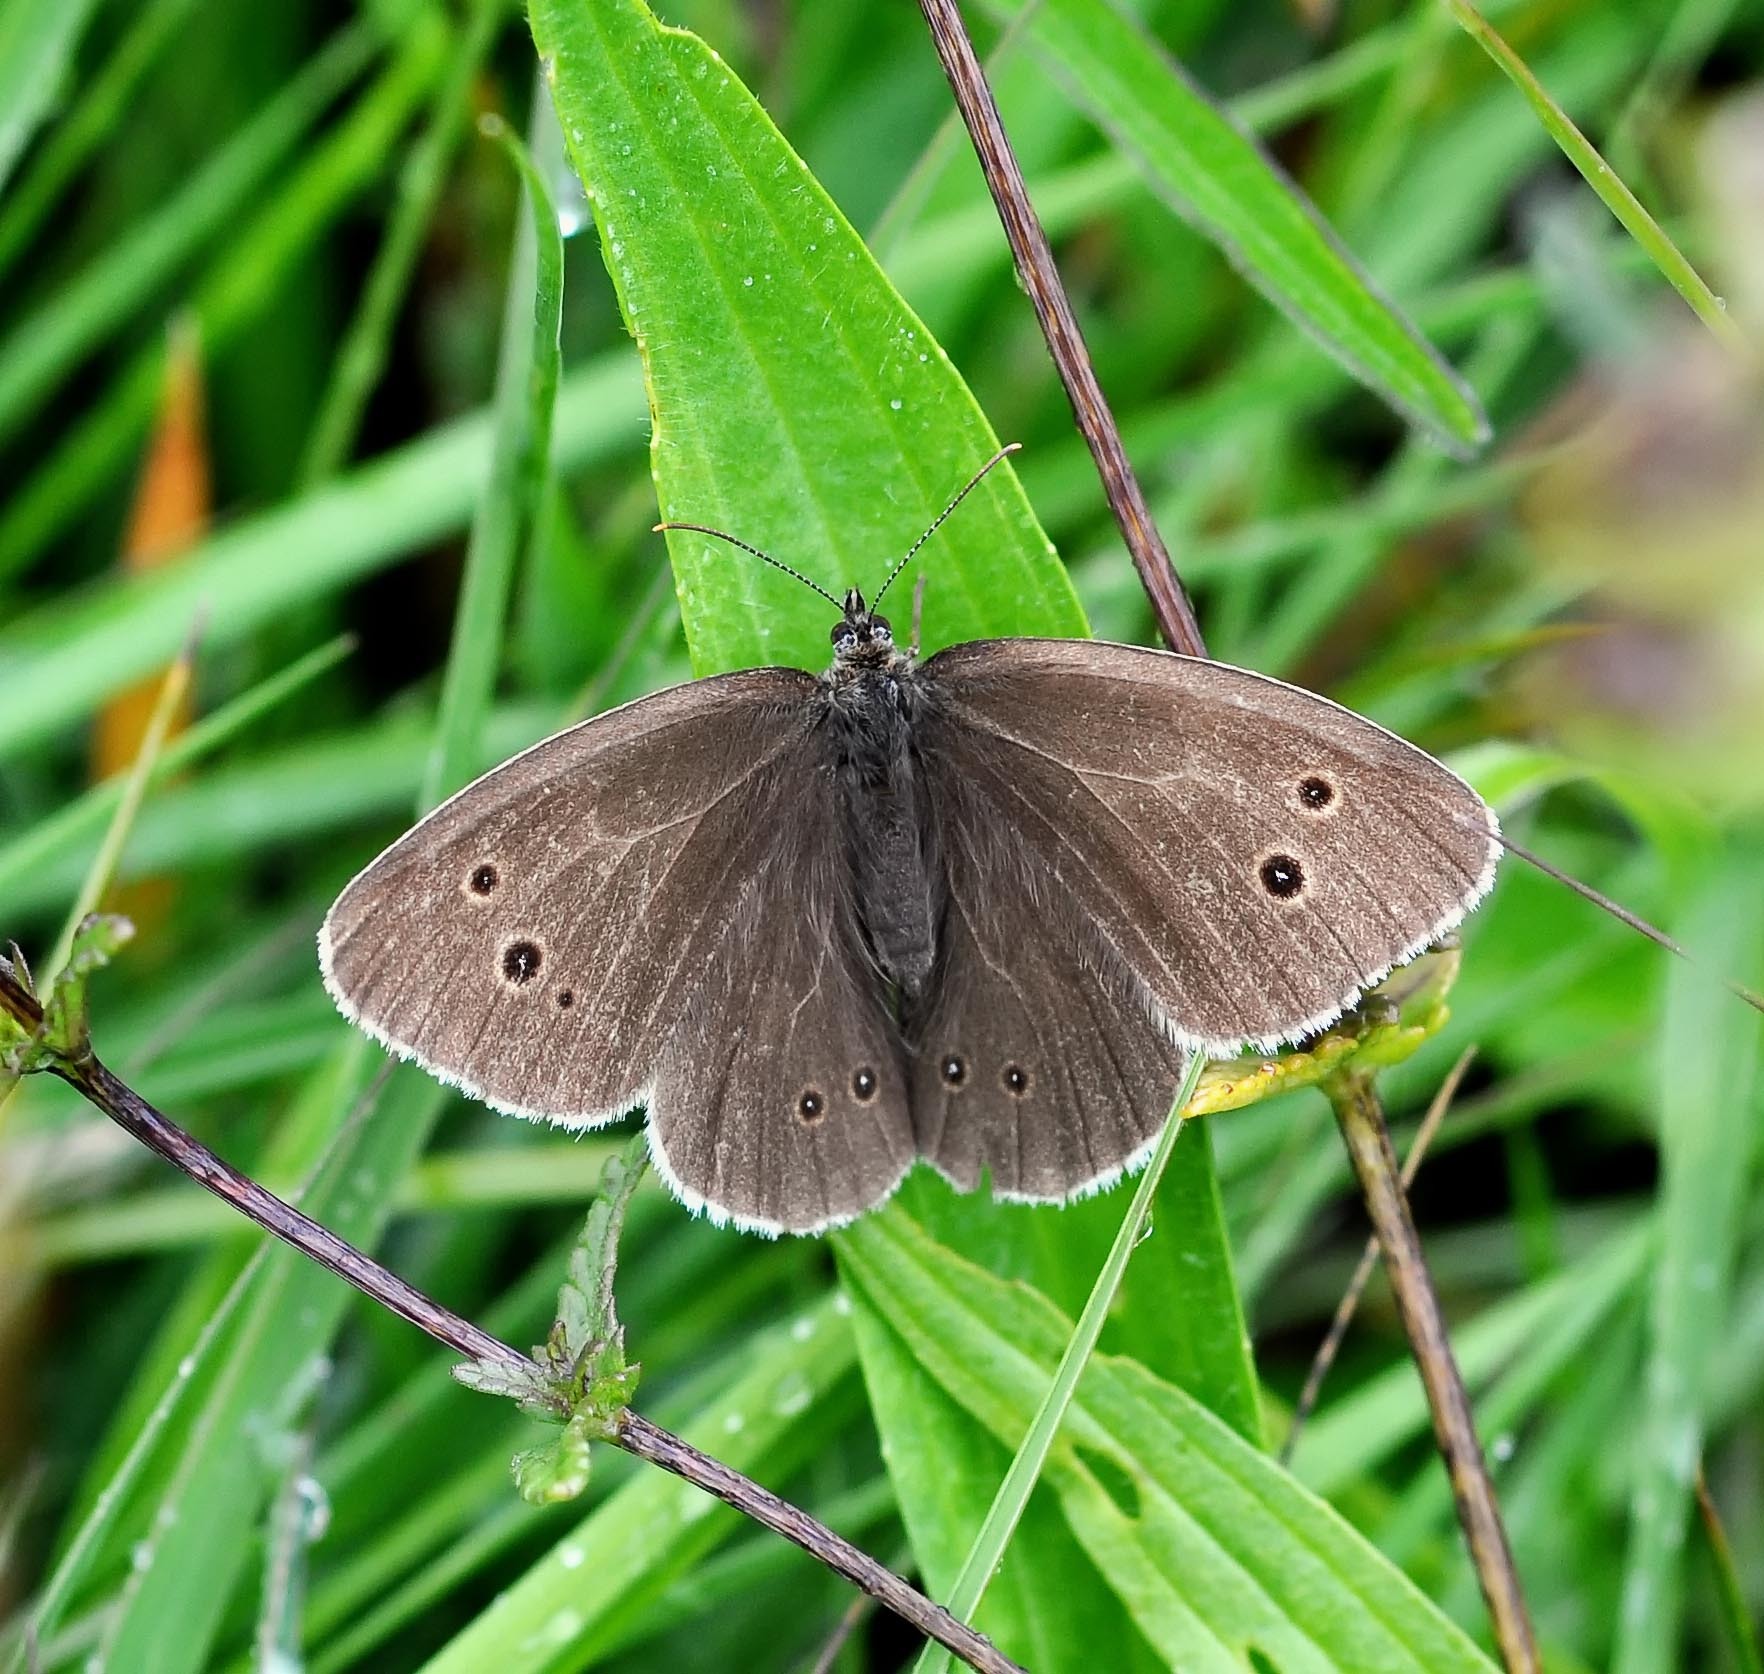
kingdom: Animalia
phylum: Arthropoda
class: Insecta
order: Lepidoptera
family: Nymphalidae
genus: Aphantopus
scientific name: Aphantopus hyperantus
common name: Ringlet
